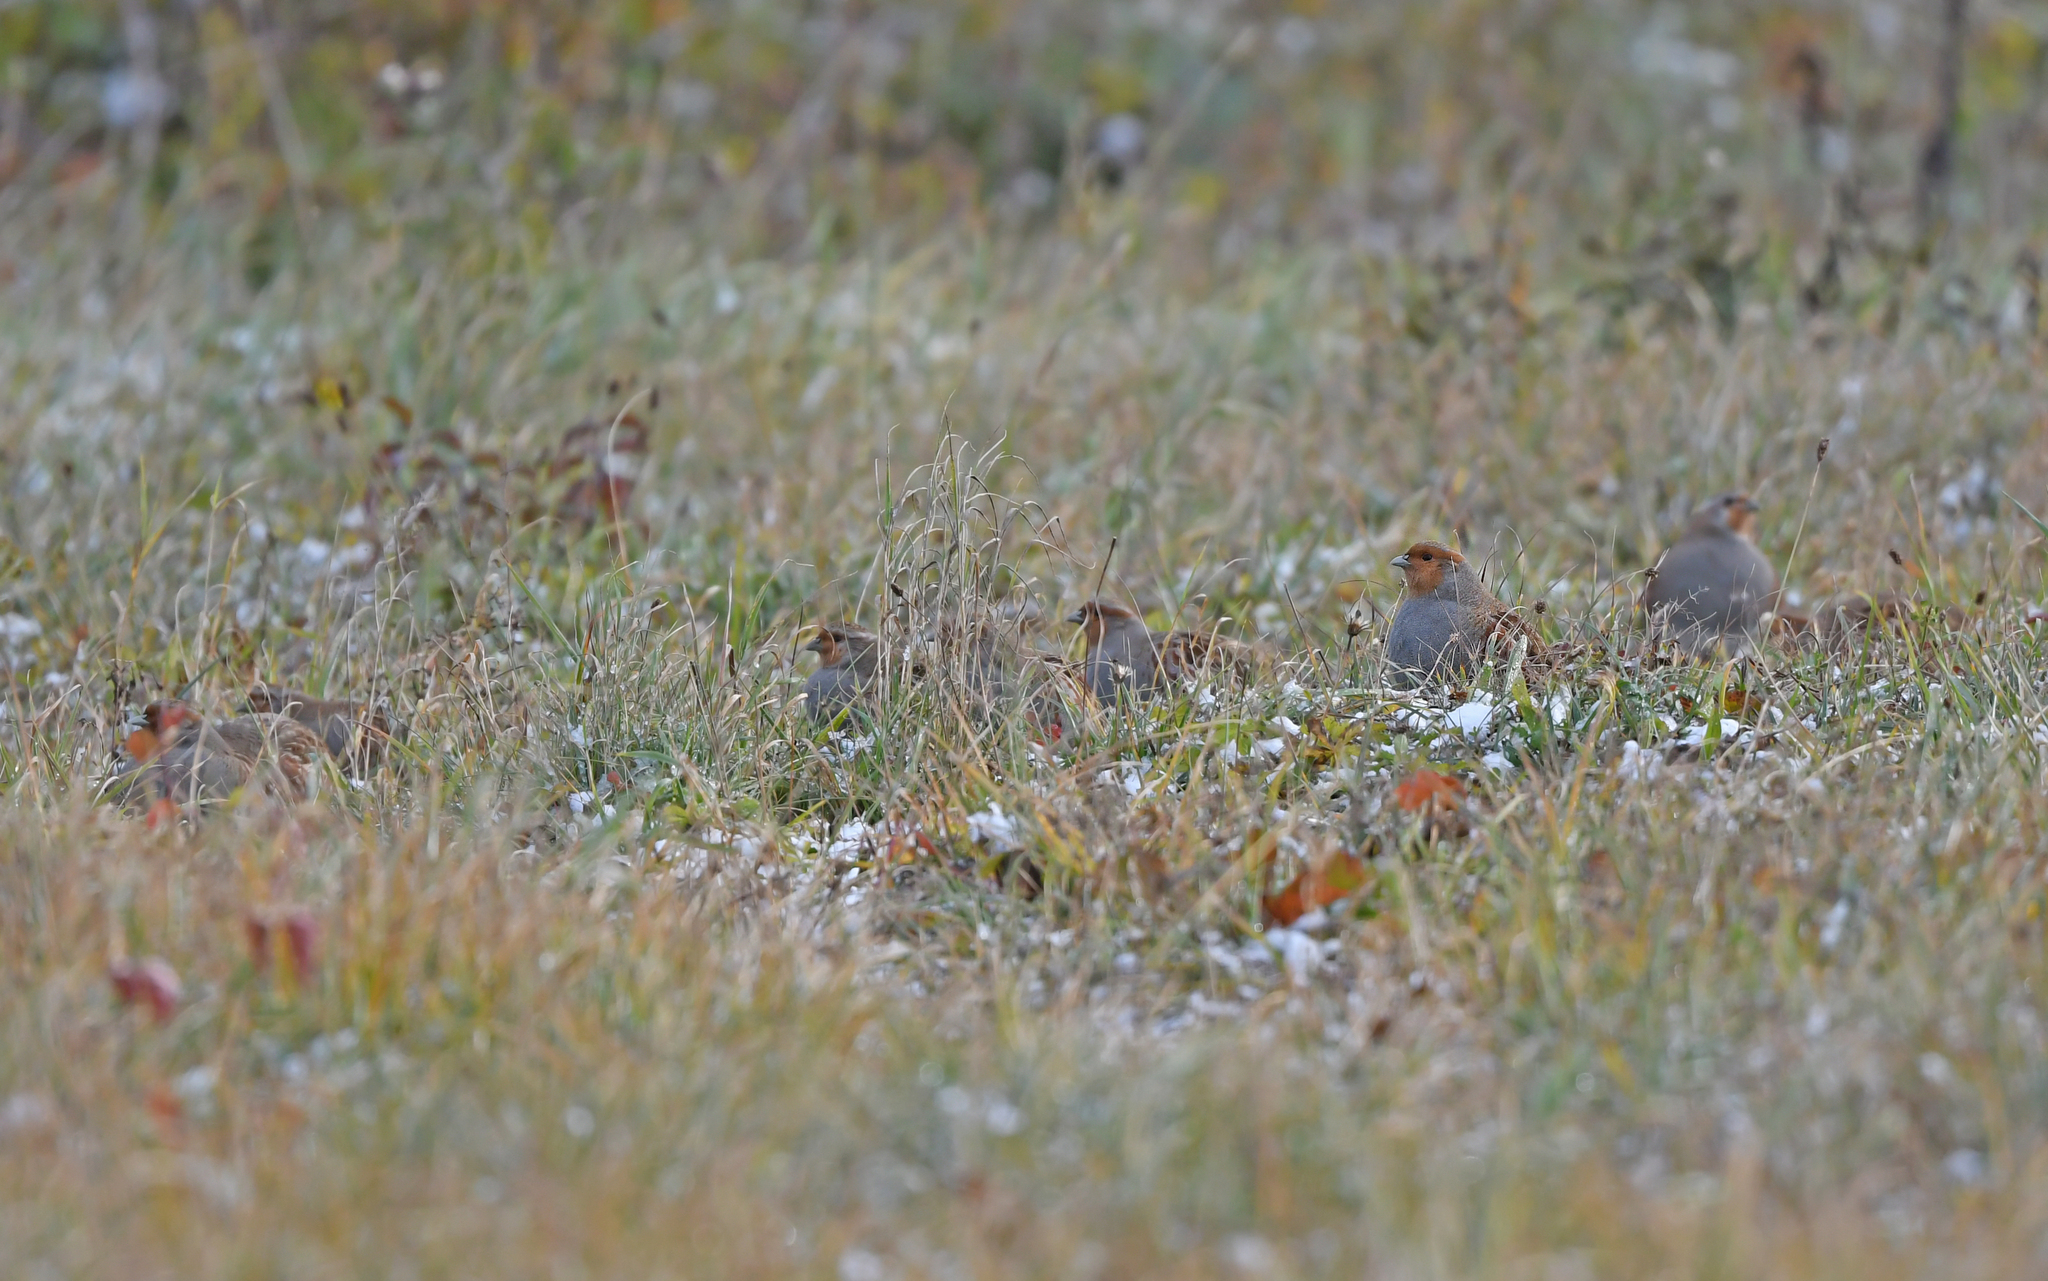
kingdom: Animalia
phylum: Chordata
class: Aves
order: Galliformes
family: Phasianidae
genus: Perdix
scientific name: Perdix perdix
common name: Grey partridge
